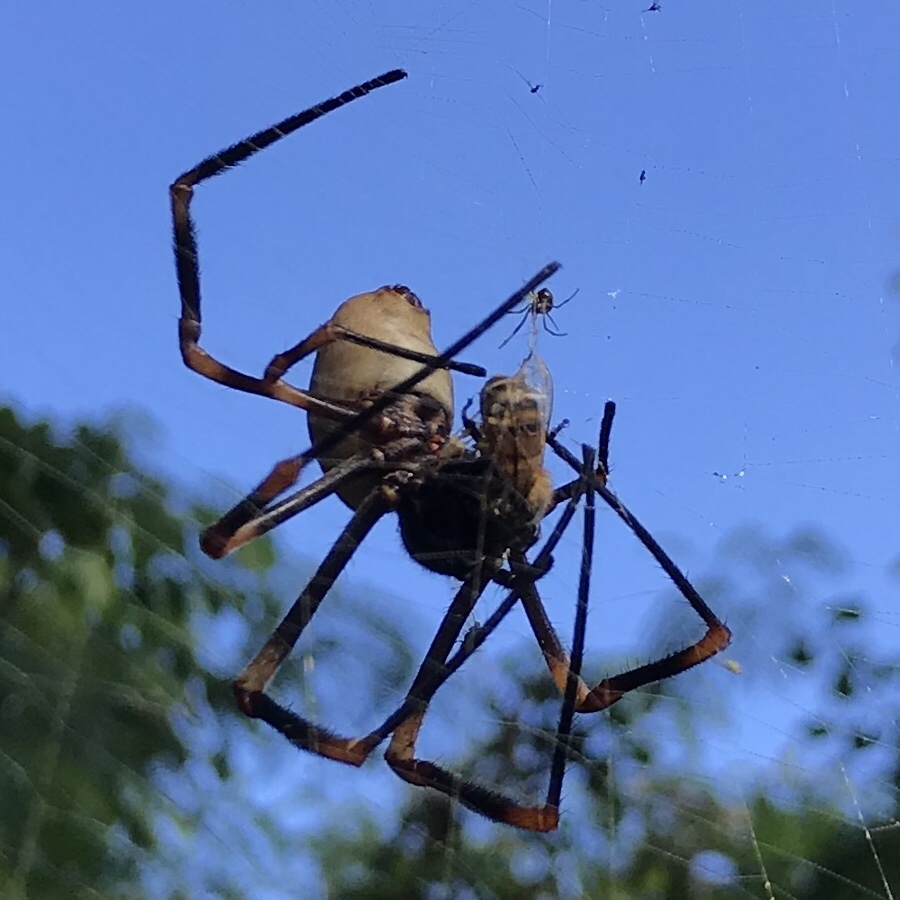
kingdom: Animalia
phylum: Arthropoda
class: Arachnida
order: Araneae
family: Araneidae
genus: Nephila
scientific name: Nephila tetragnathoides
